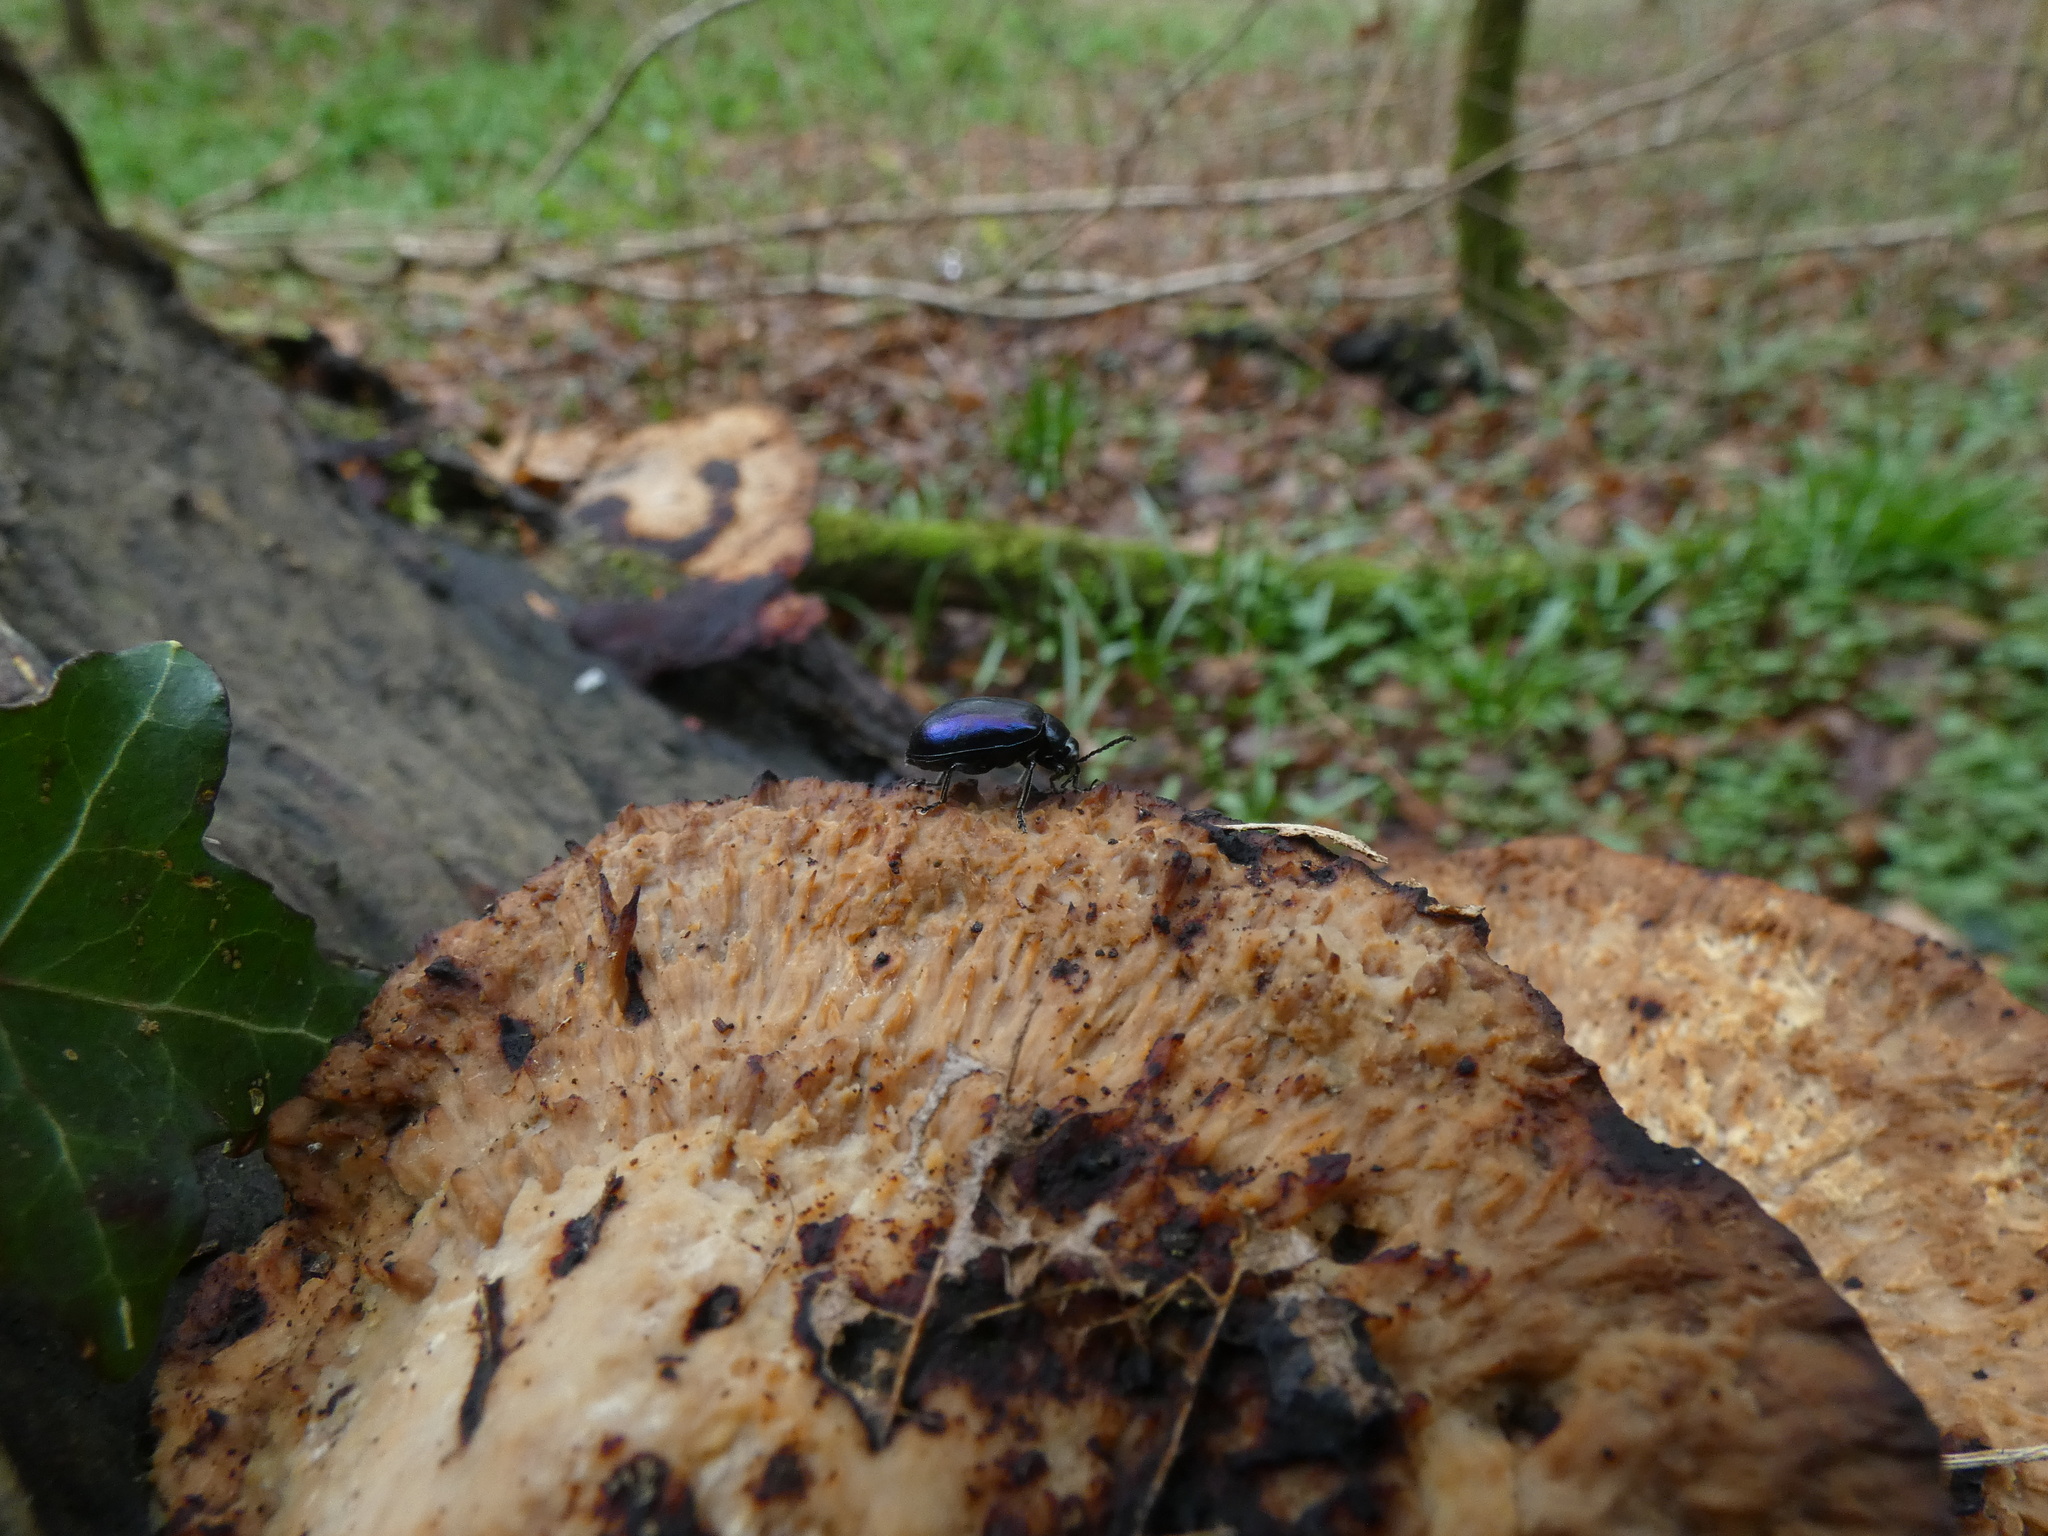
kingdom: Animalia
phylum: Arthropoda
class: Insecta
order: Coleoptera
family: Chrysomelidae
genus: Agelastica
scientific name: Agelastica alni
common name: Alder leaf beetle
